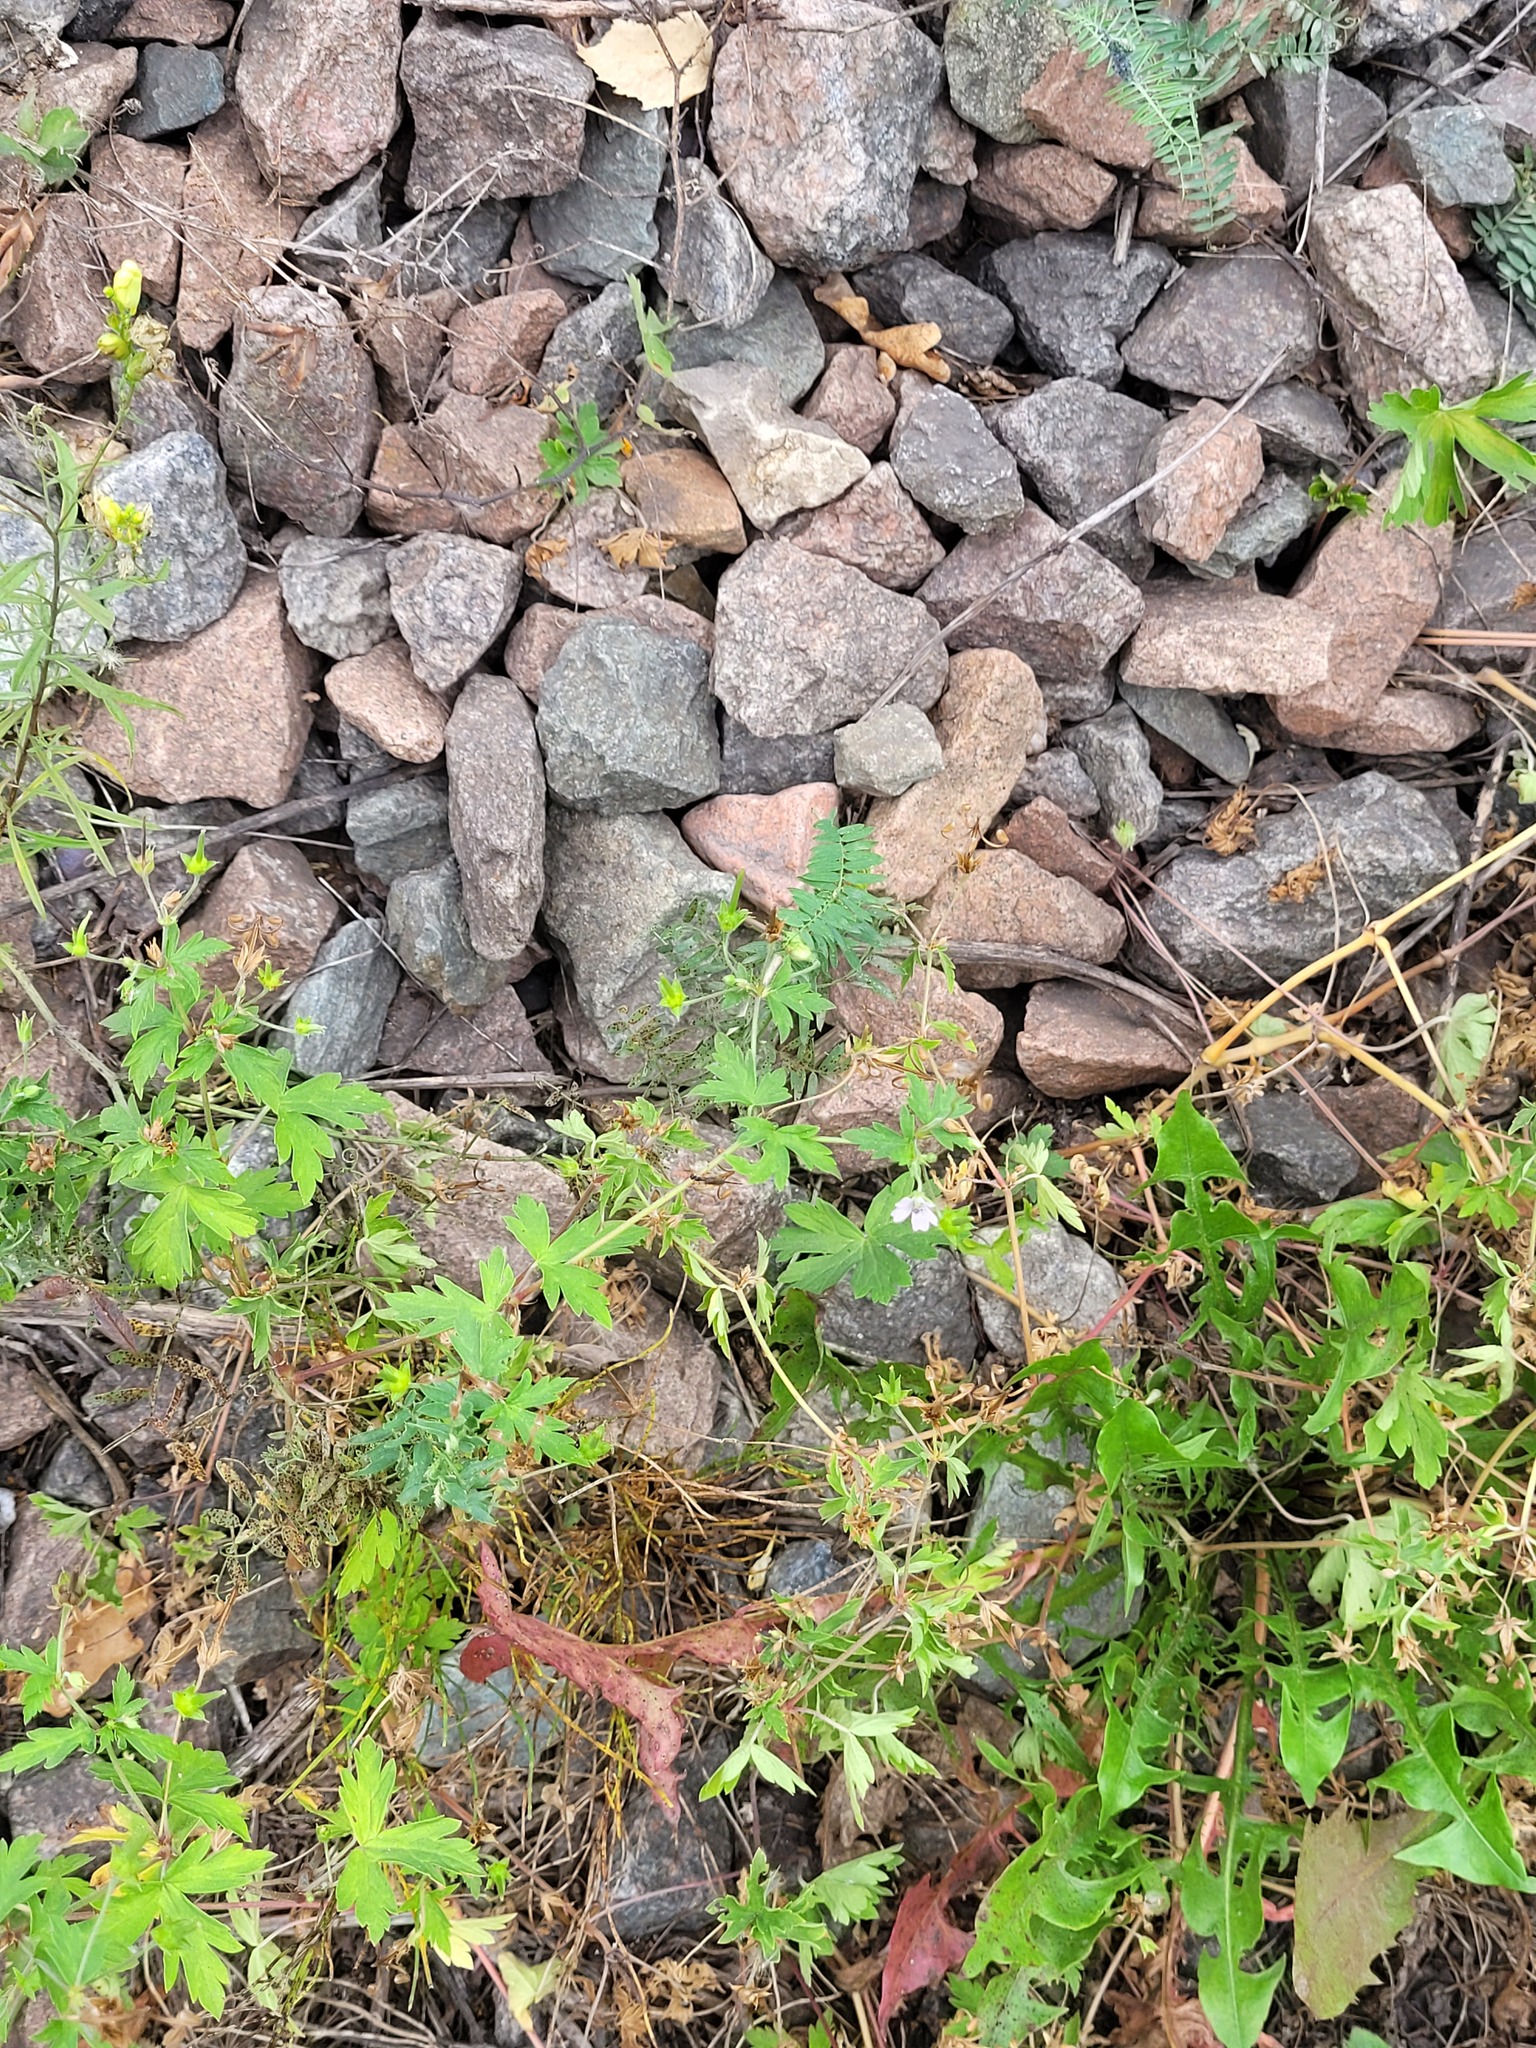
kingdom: Plantae
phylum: Tracheophyta
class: Magnoliopsida
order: Geraniales
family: Geraniaceae
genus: Geranium
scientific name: Geranium sibiricum
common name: Siberian crane's-bill
